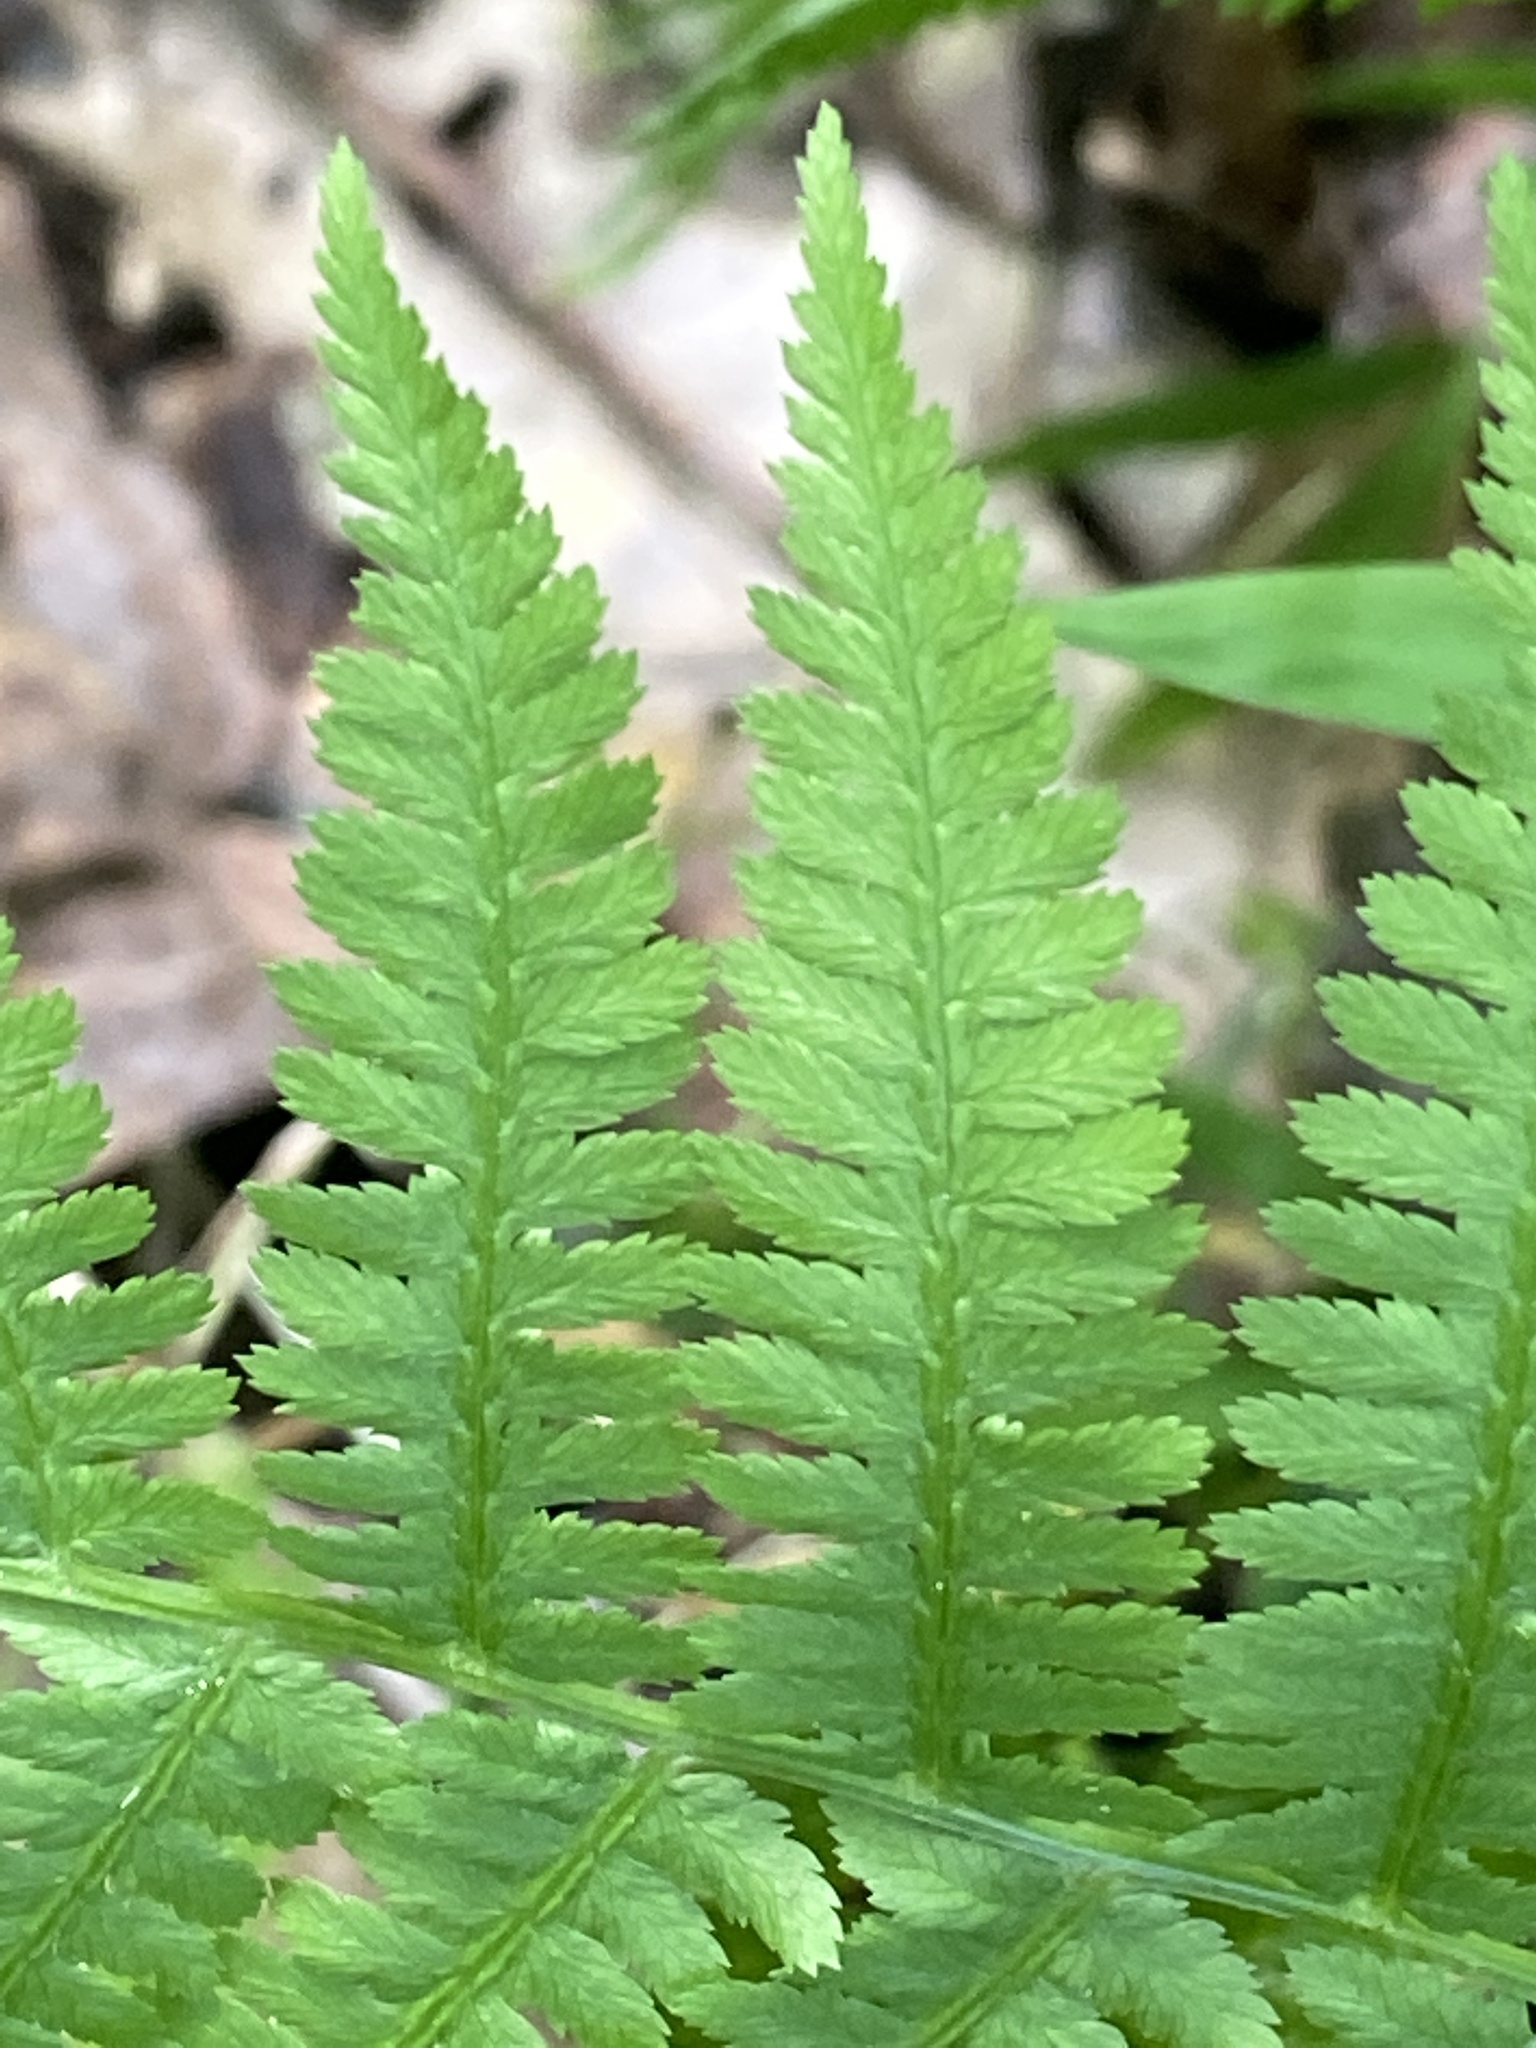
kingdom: Plantae
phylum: Tracheophyta
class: Polypodiopsida
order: Polypodiales
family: Athyriaceae
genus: Athyrium
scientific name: Athyrium angustum
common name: Northern lady fern
